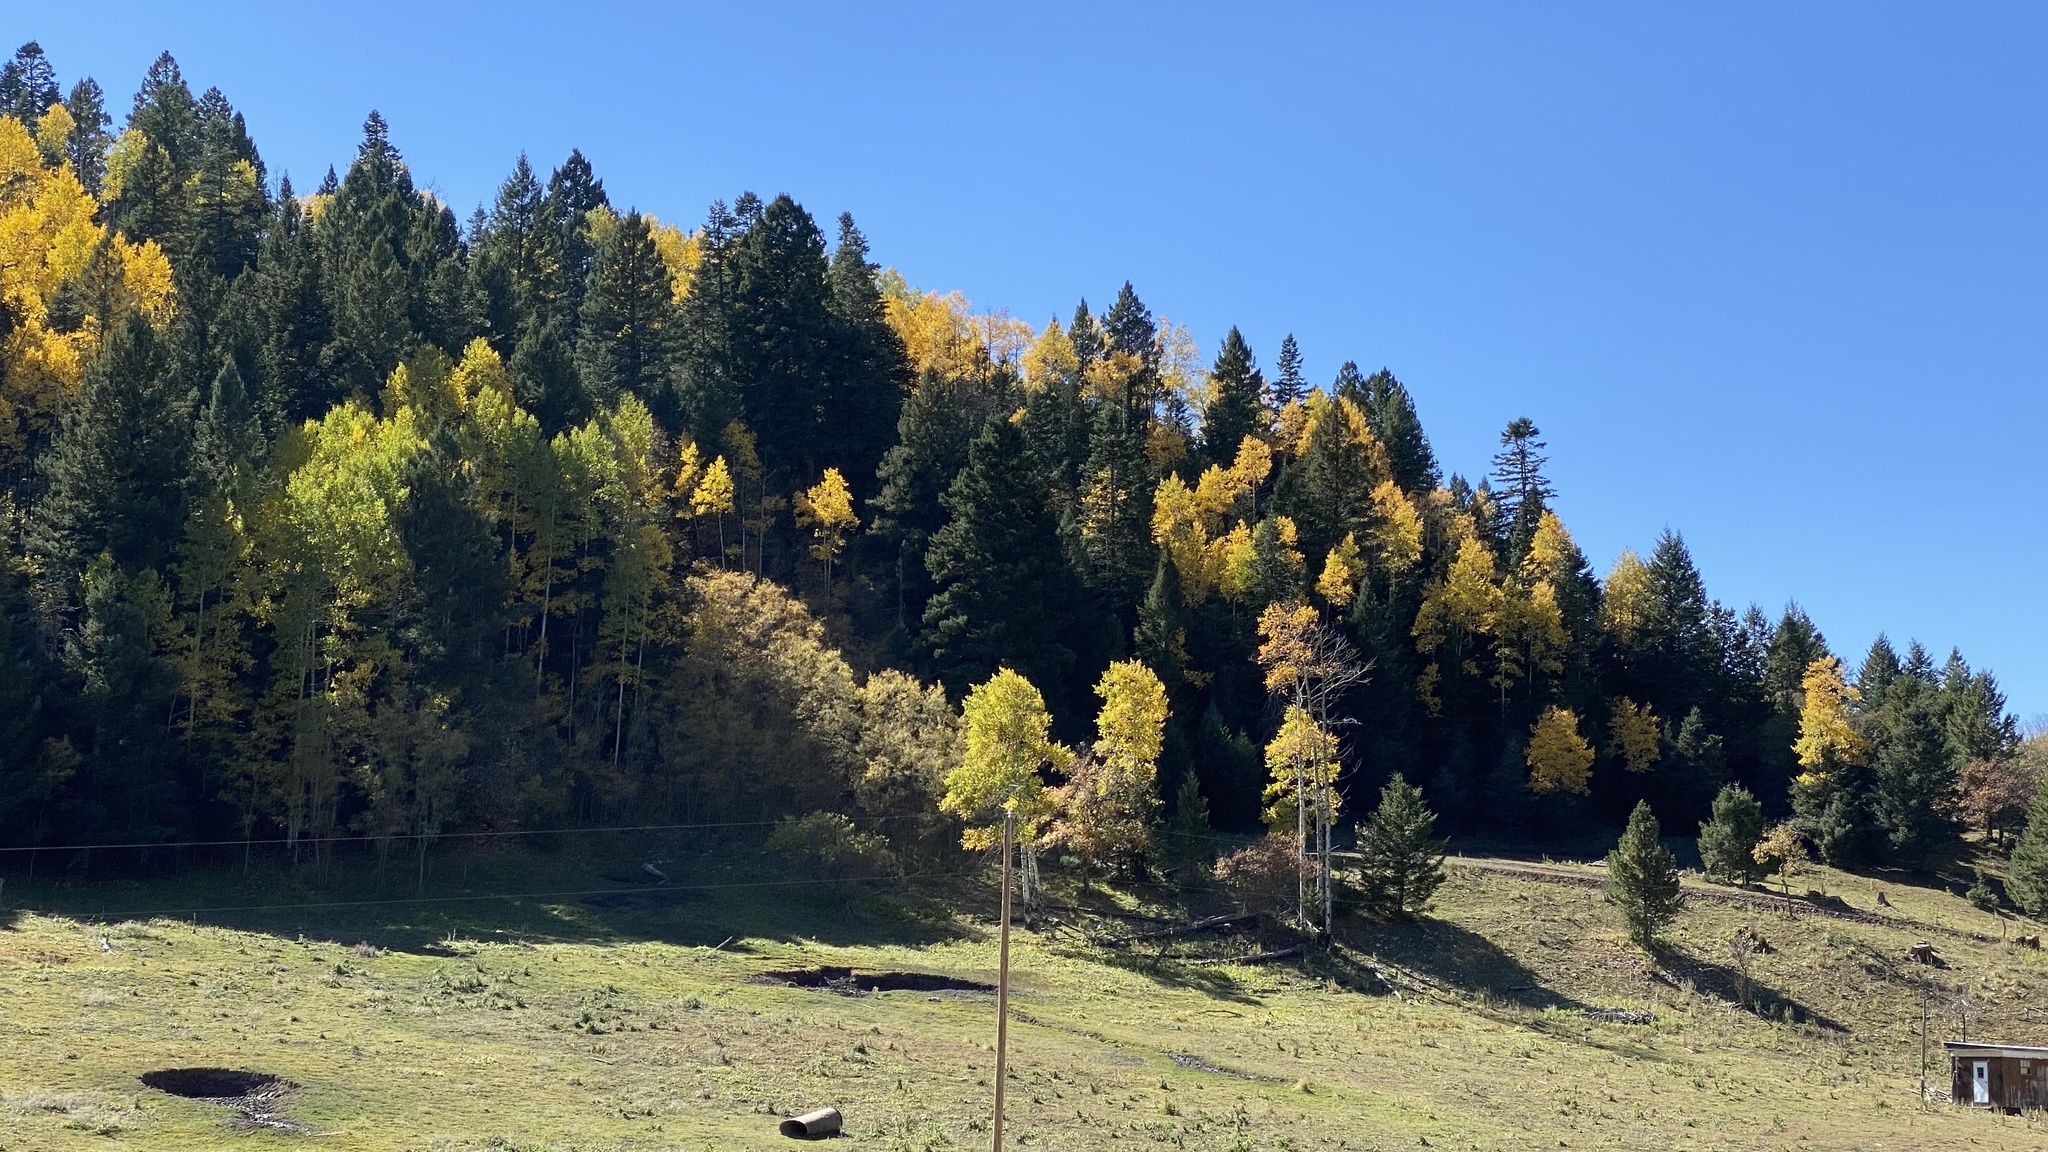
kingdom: Plantae
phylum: Tracheophyta
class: Magnoliopsida
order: Malpighiales
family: Salicaceae
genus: Populus
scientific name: Populus tremuloides
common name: Quaking aspen
